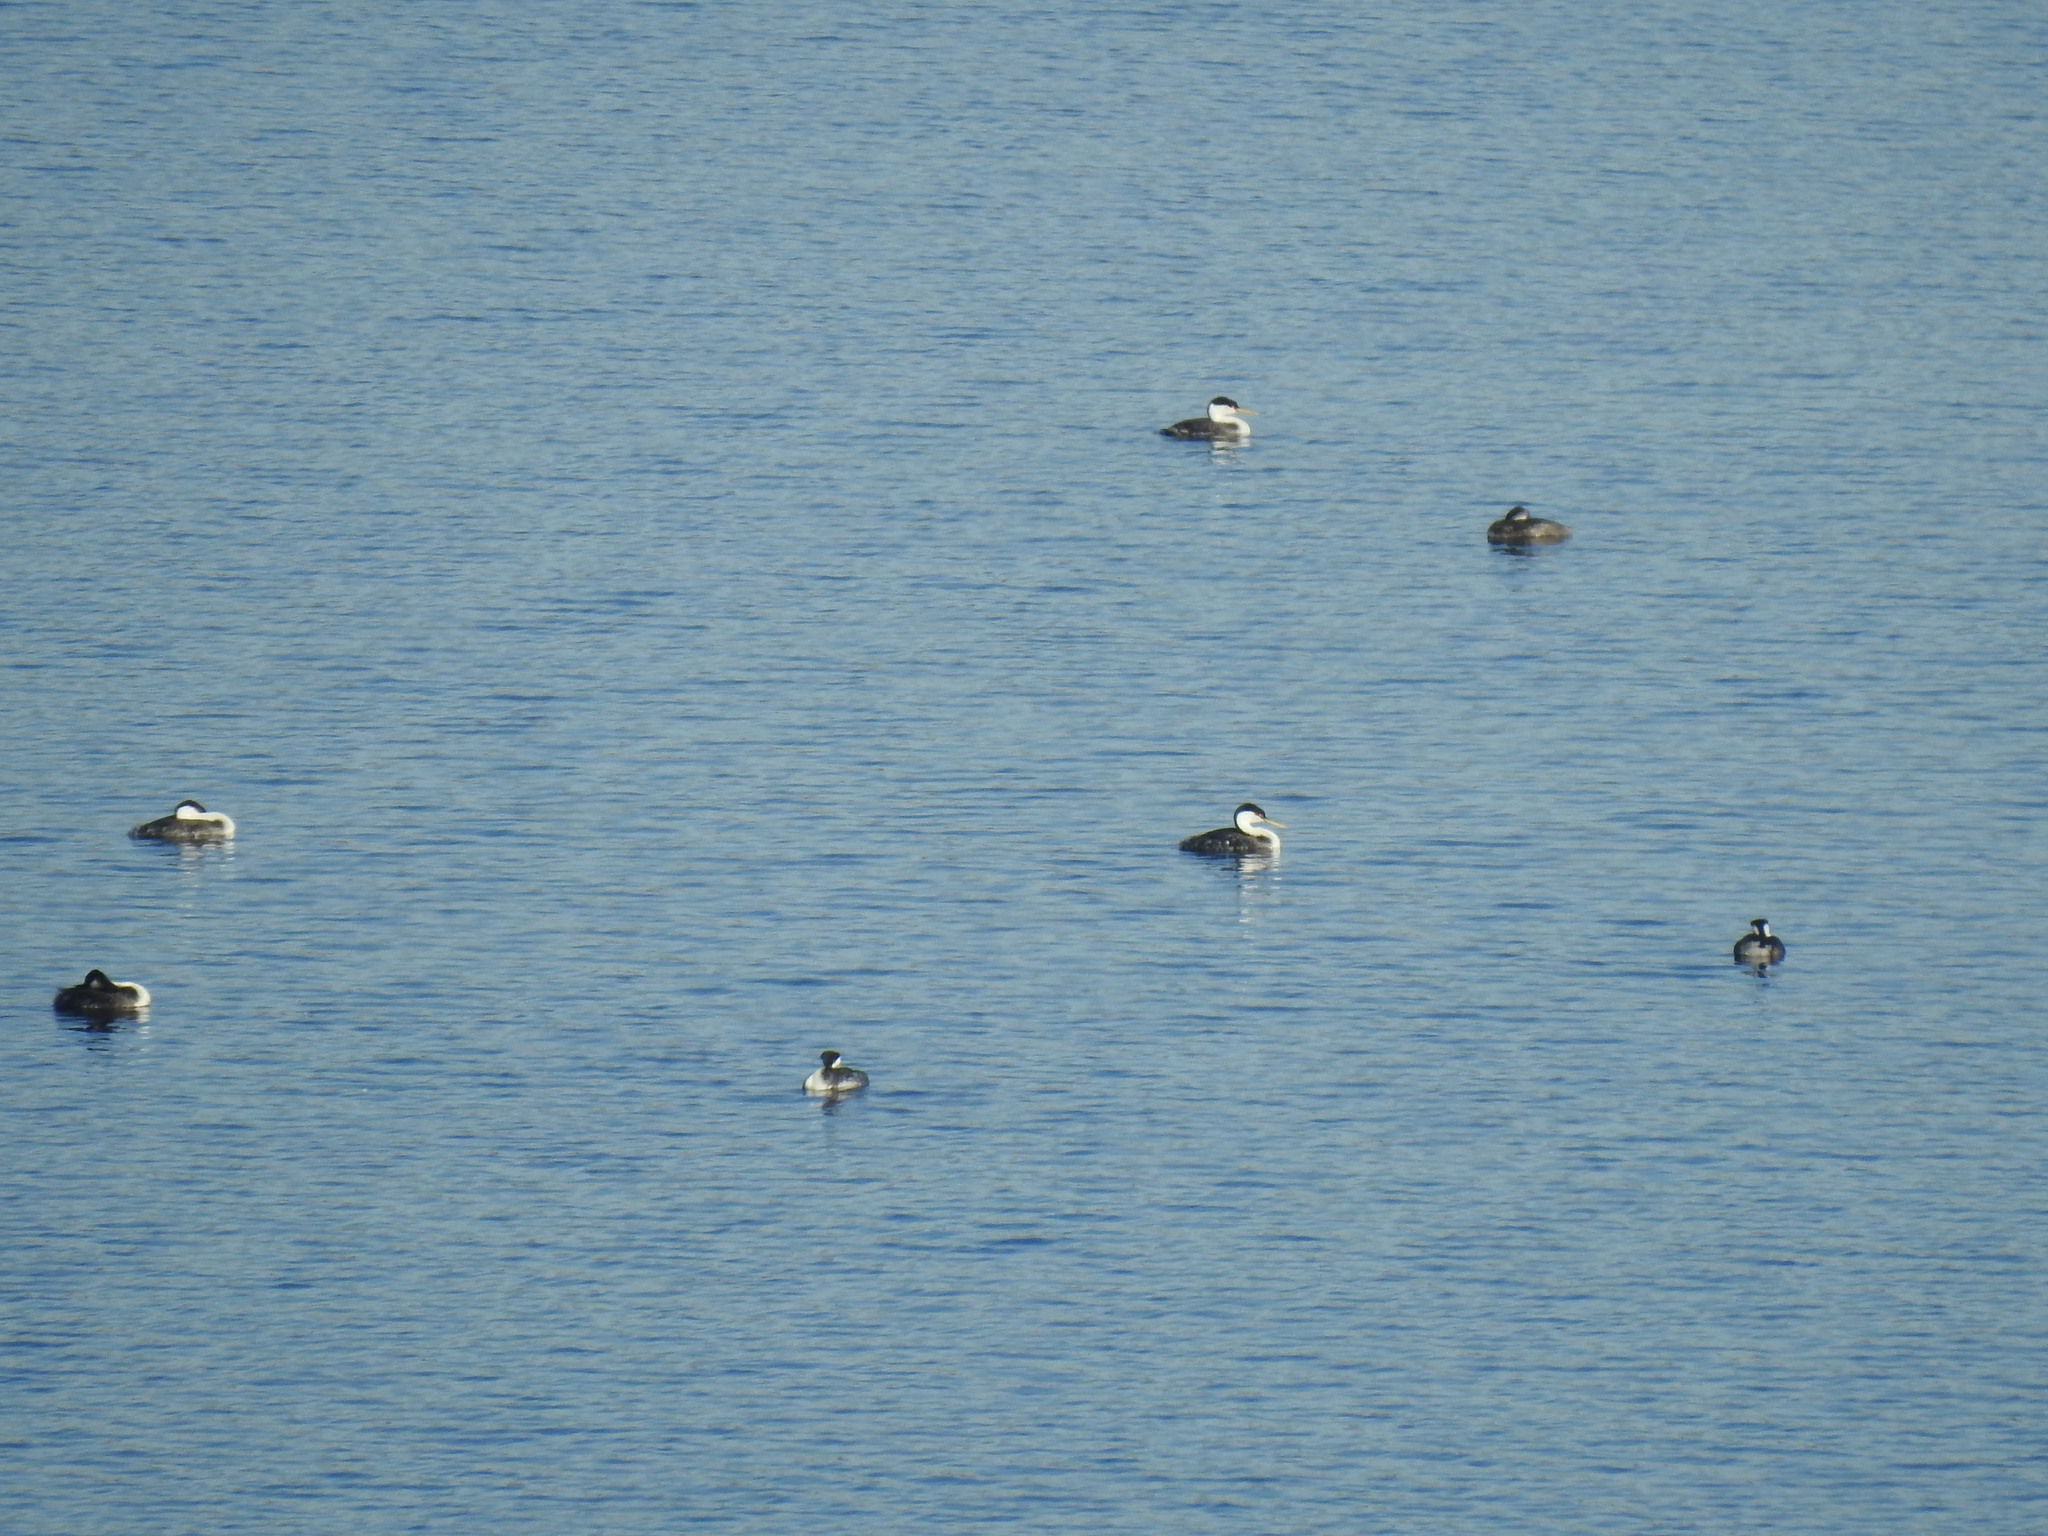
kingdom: Animalia
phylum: Chordata
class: Aves
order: Podicipediformes
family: Podicipedidae
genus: Aechmophorus
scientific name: Aechmophorus occidentalis
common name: Western grebe
